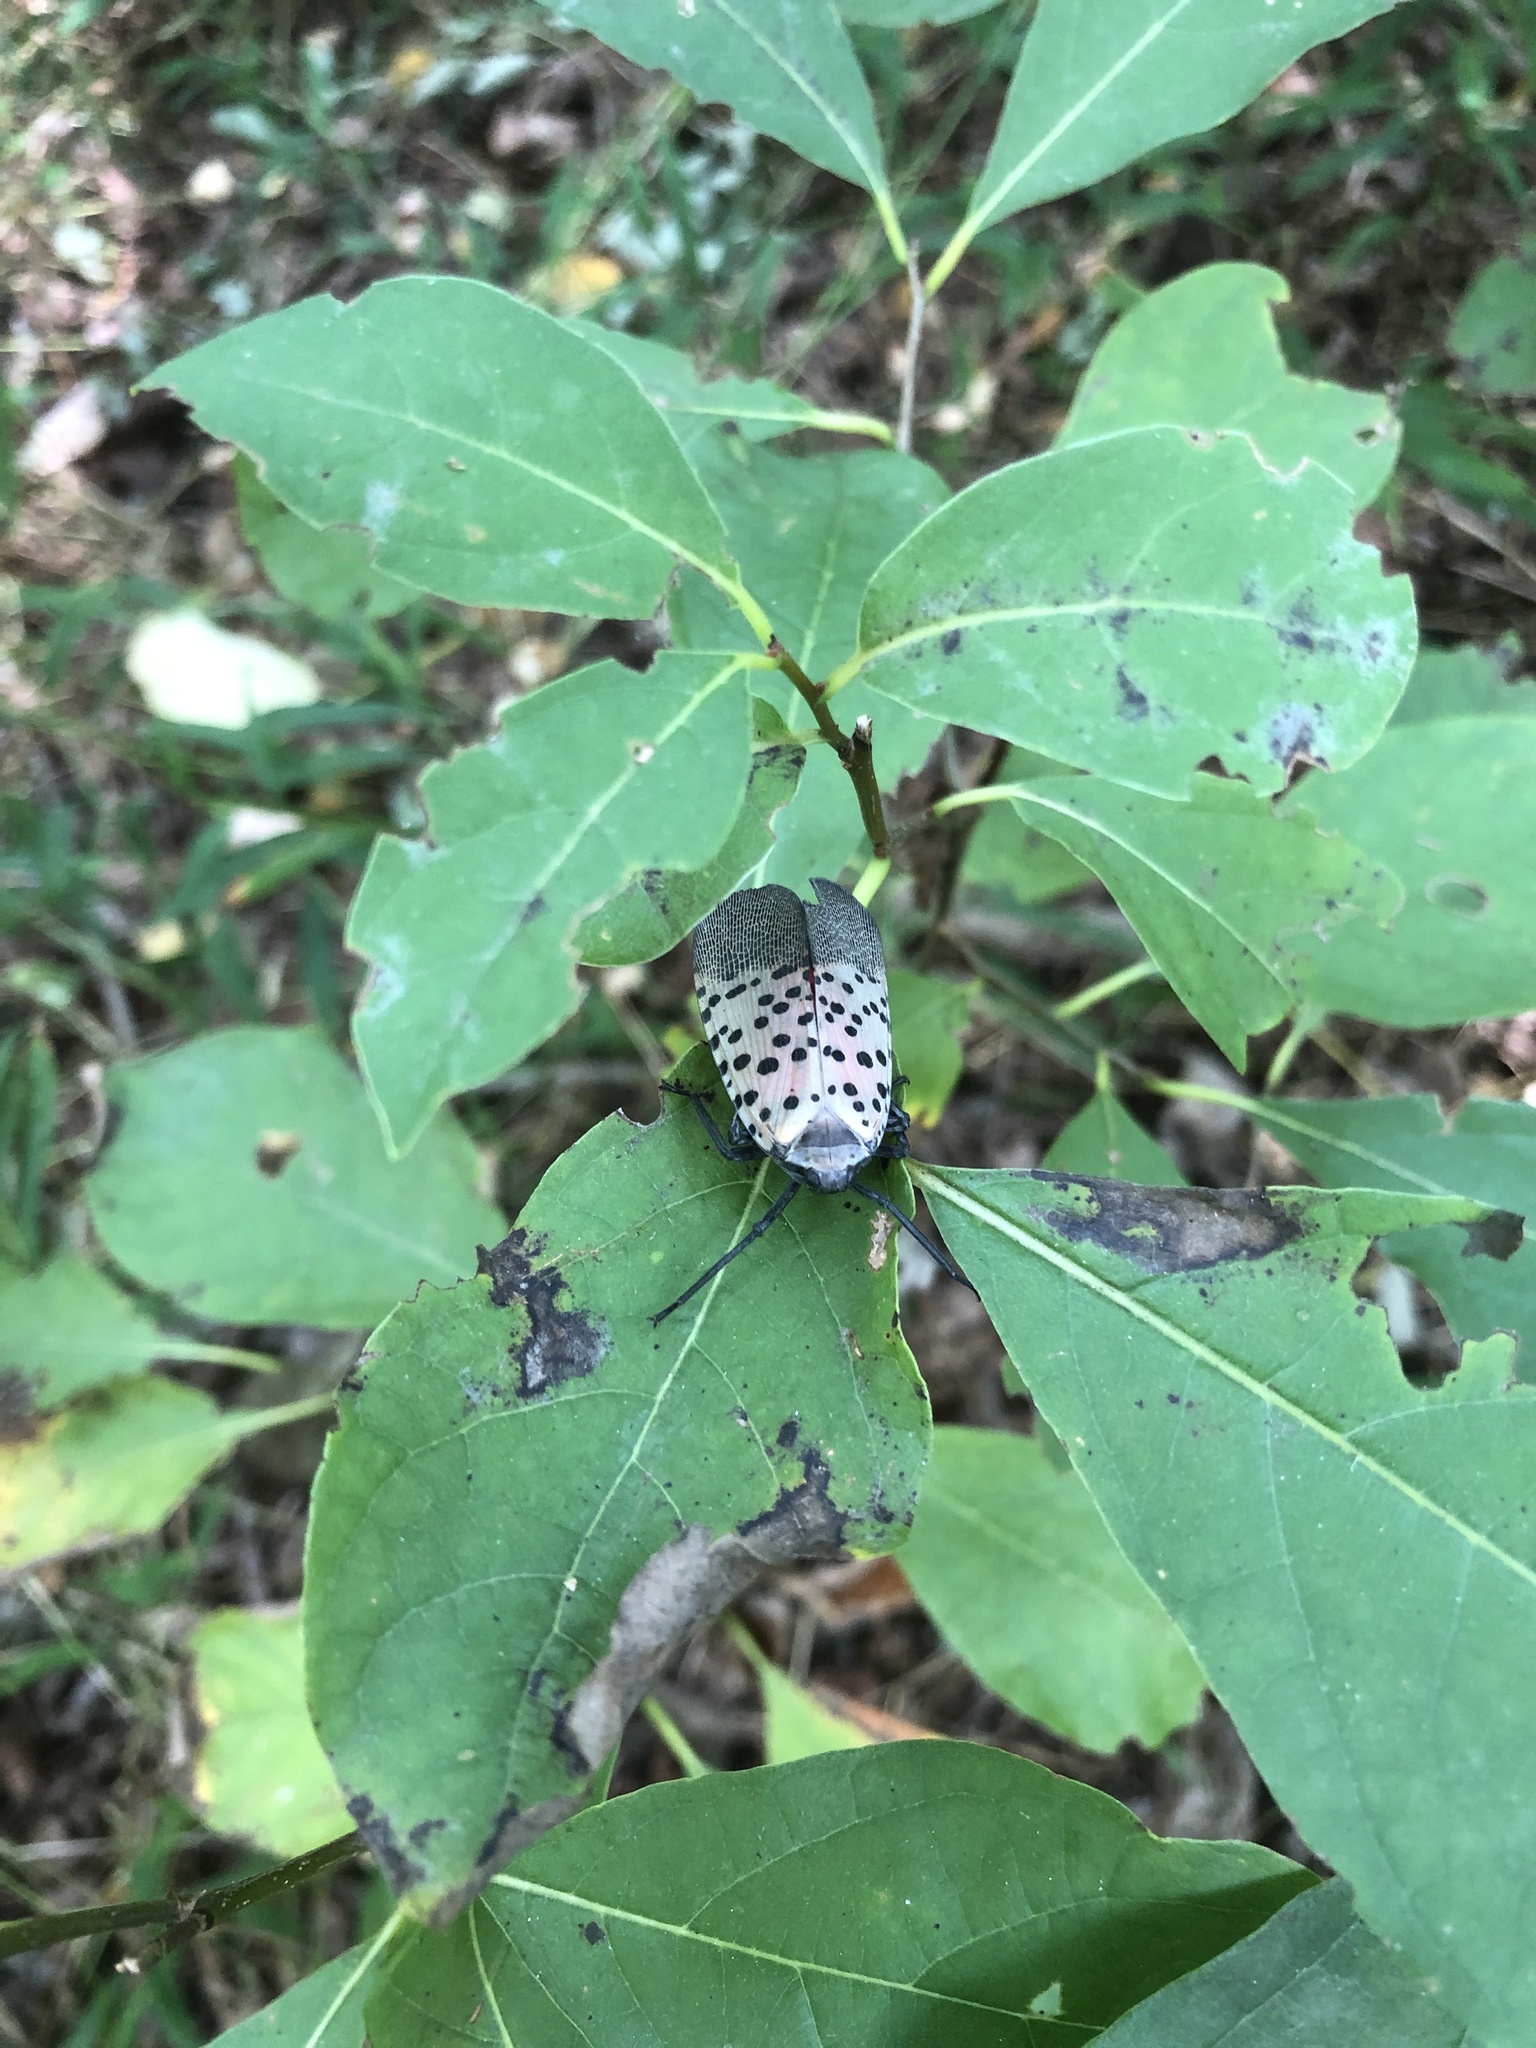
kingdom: Animalia
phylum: Arthropoda
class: Insecta
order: Hemiptera
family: Fulgoridae
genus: Lycorma
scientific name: Lycorma delicatula
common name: Spotted lanternfly
